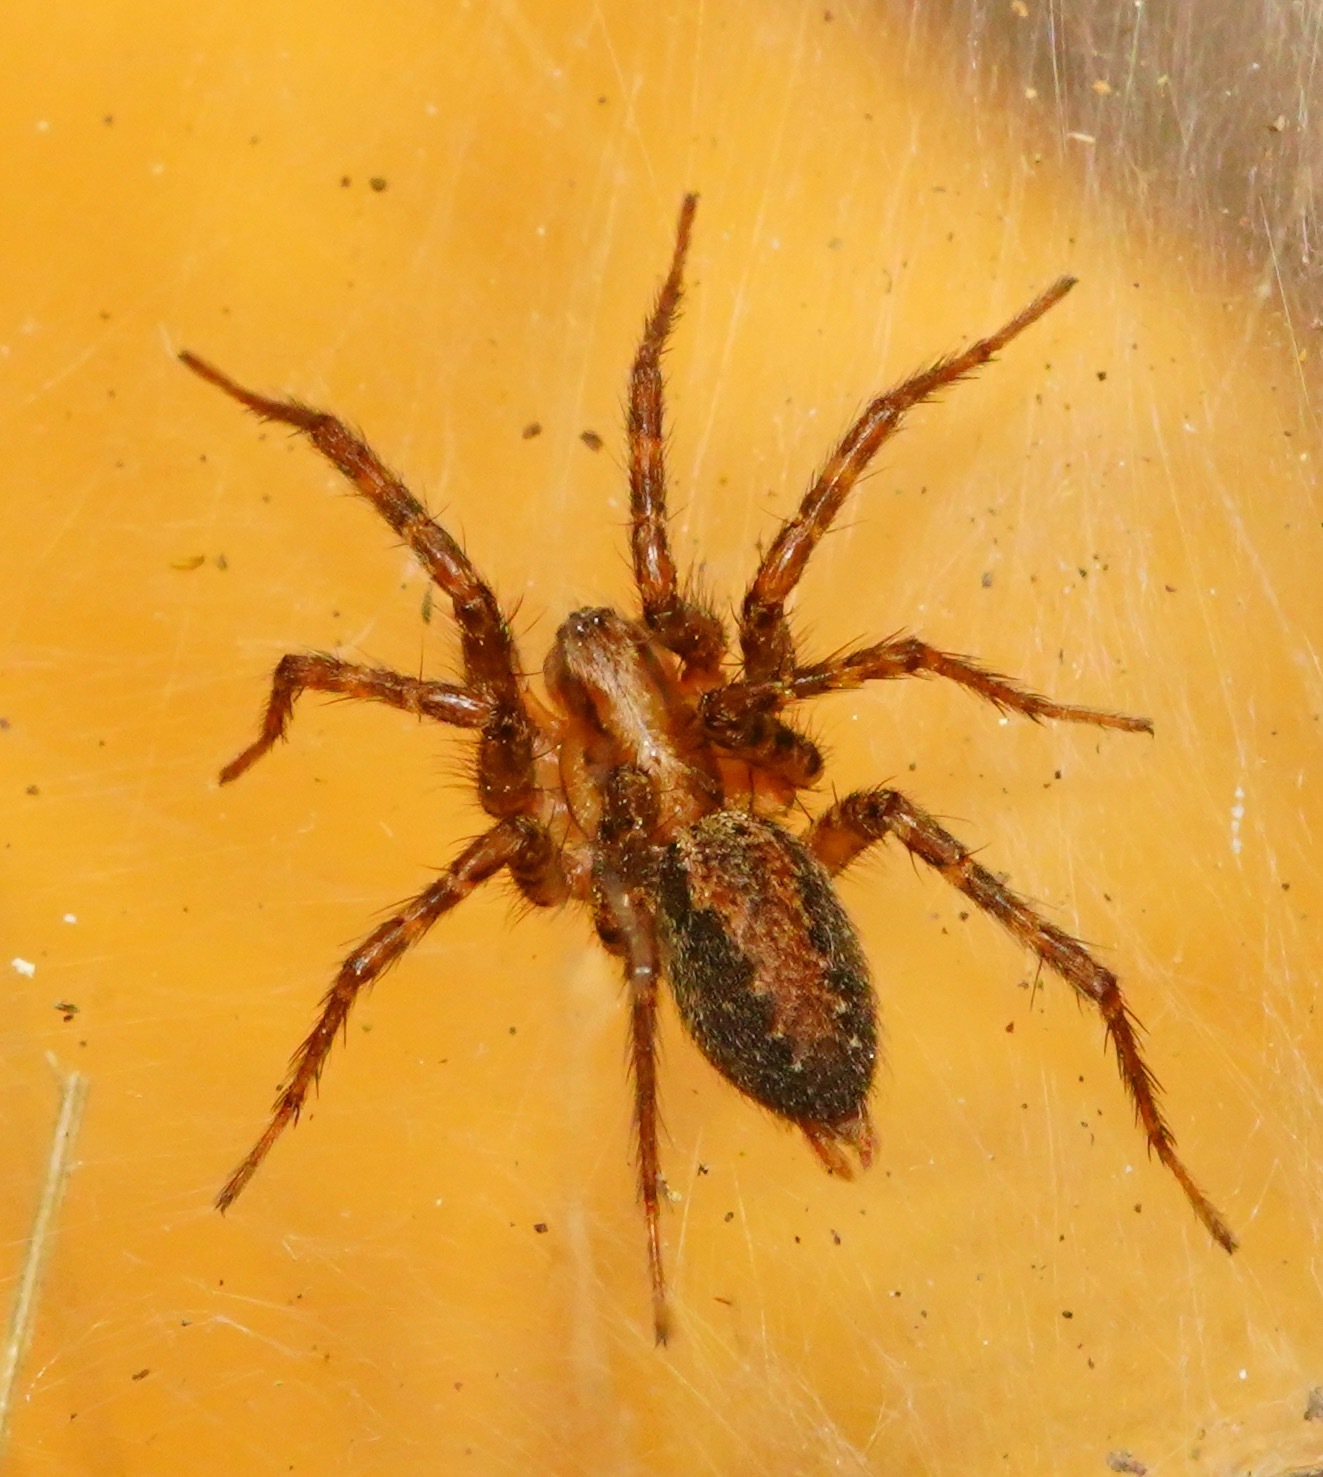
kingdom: Animalia
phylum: Arthropoda
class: Arachnida
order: Araneae
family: Agelenidae
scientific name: Agelenidae
